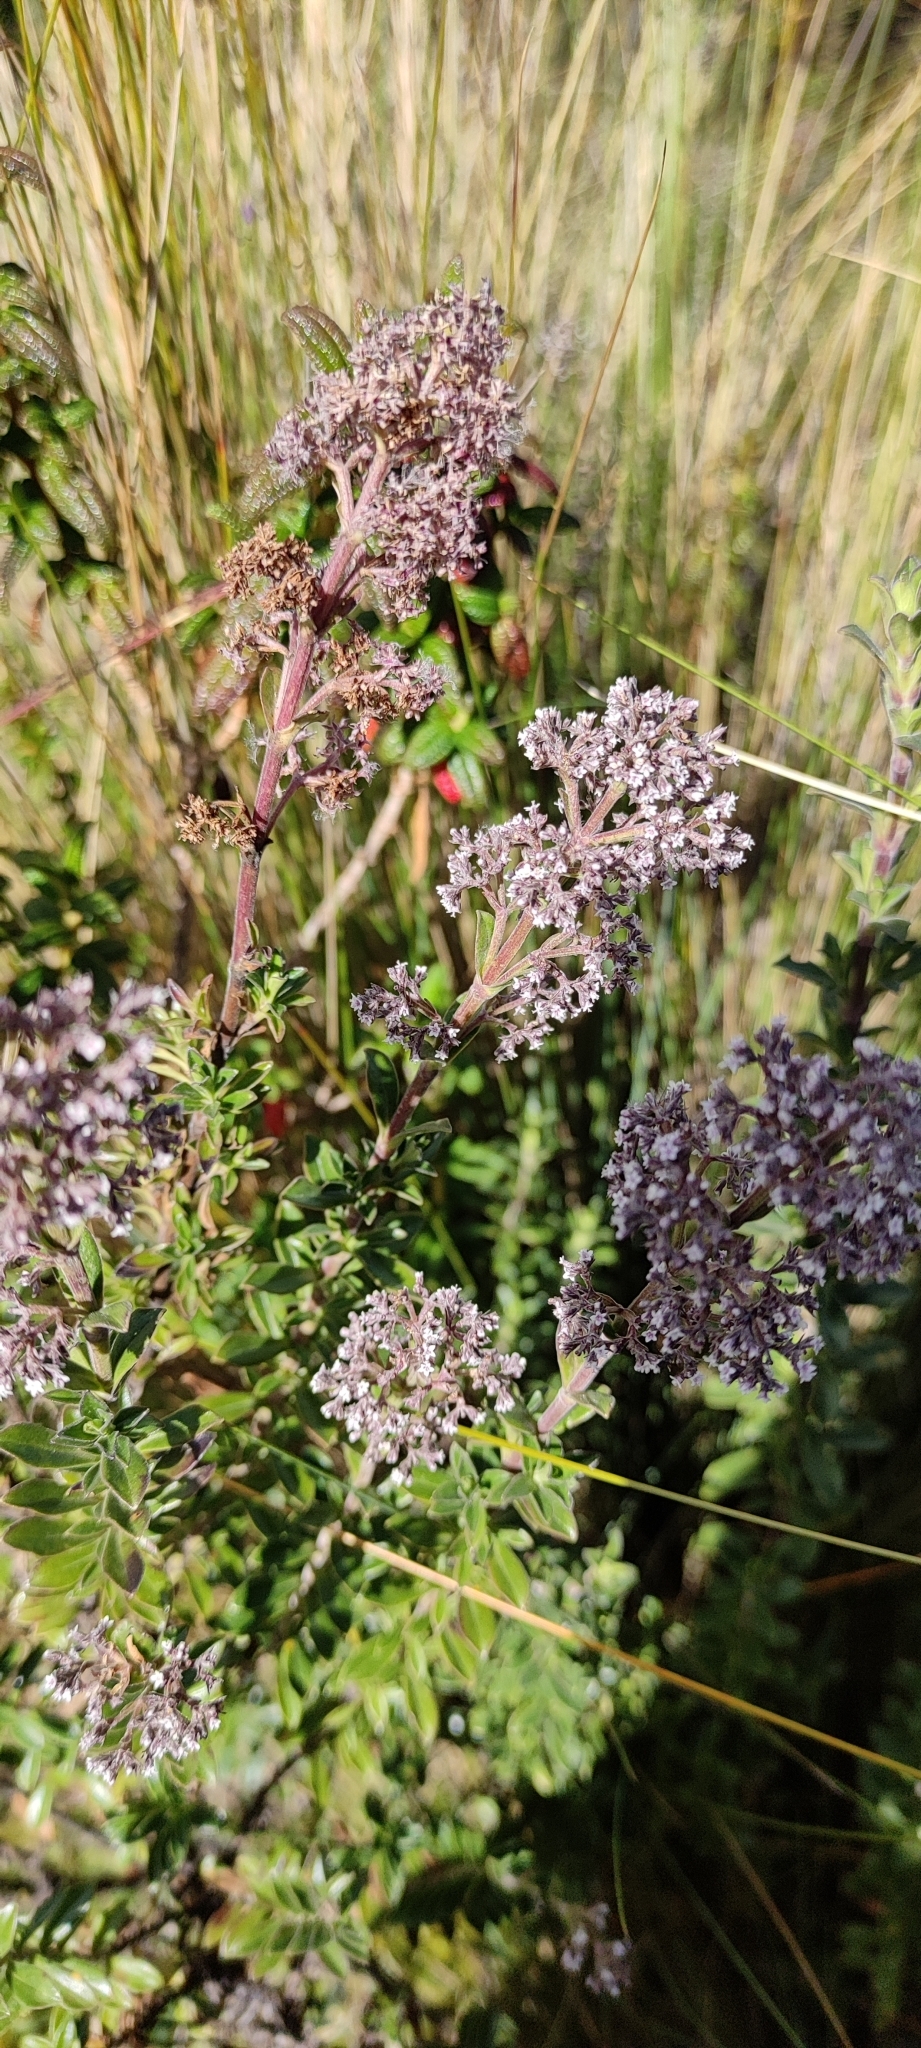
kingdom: Plantae
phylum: Tracheophyta
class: Magnoliopsida
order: Dipsacales
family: Caprifoliaceae
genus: Valeriana
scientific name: Valeriana microphylla
